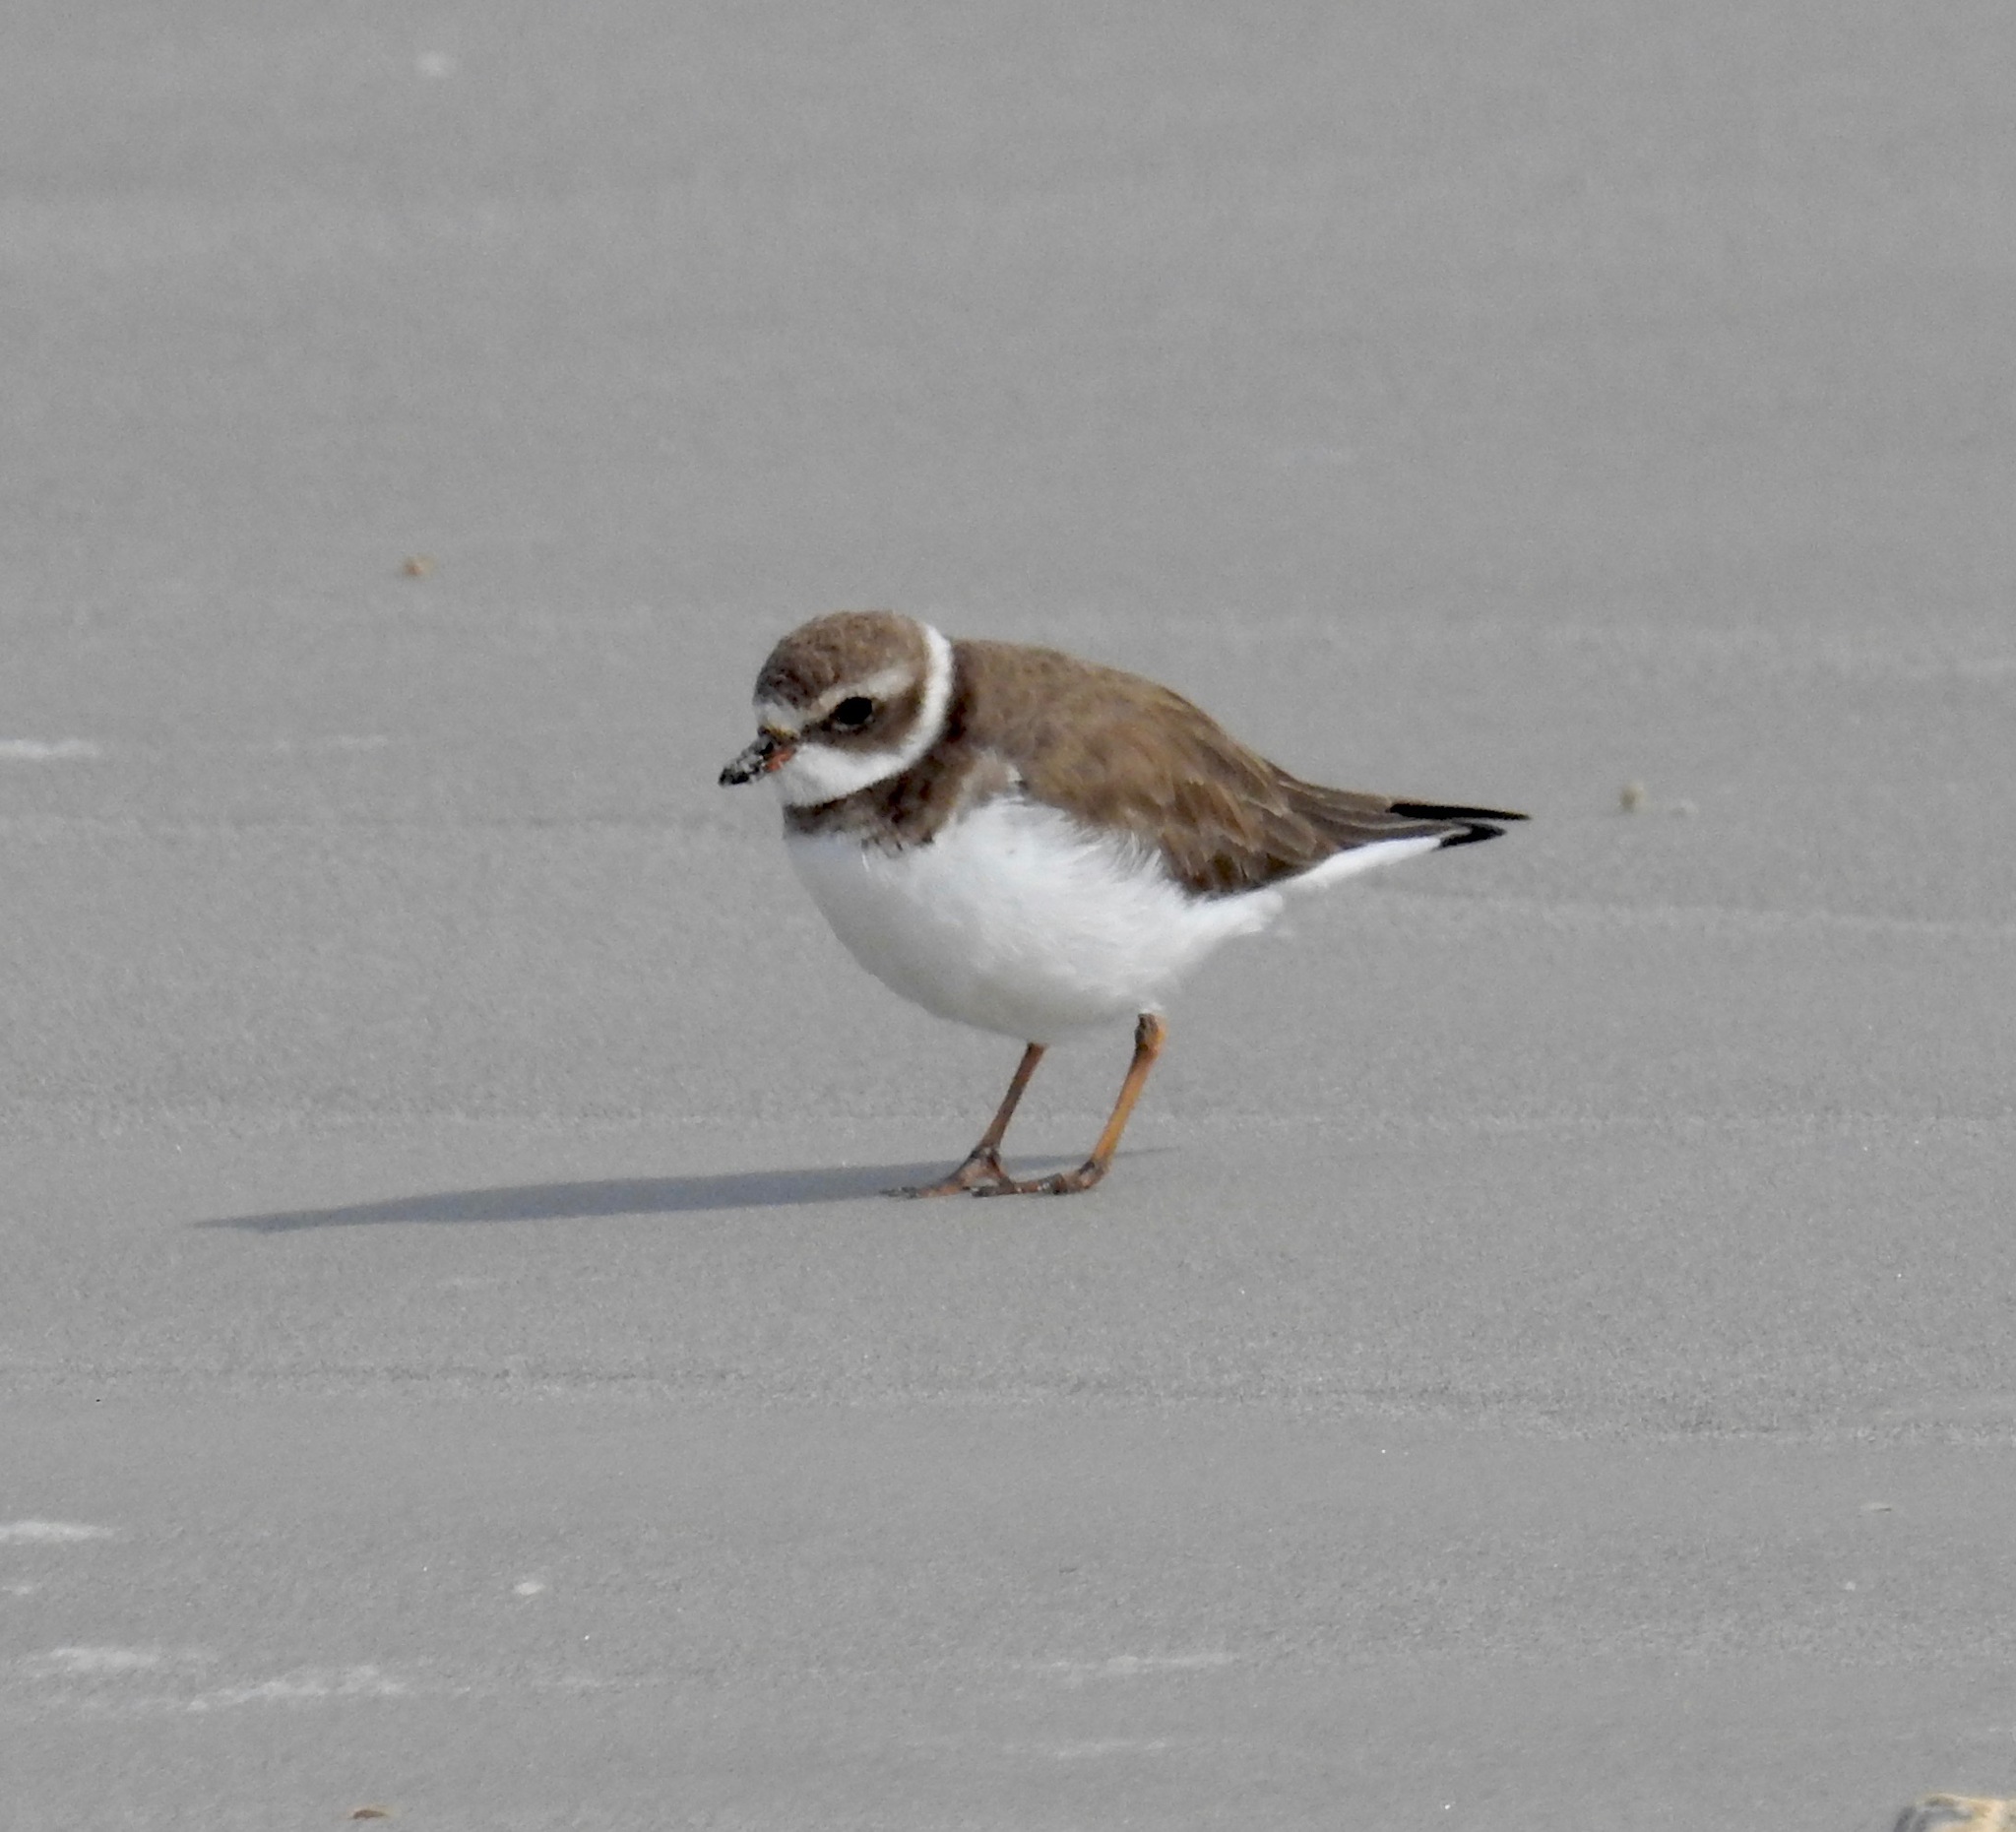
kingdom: Animalia
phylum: Chordata
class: Aves
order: Charadriiformes
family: Charadriidae
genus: Charadrius
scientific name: Charadrius semipalmatus
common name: Semipalmated plover
